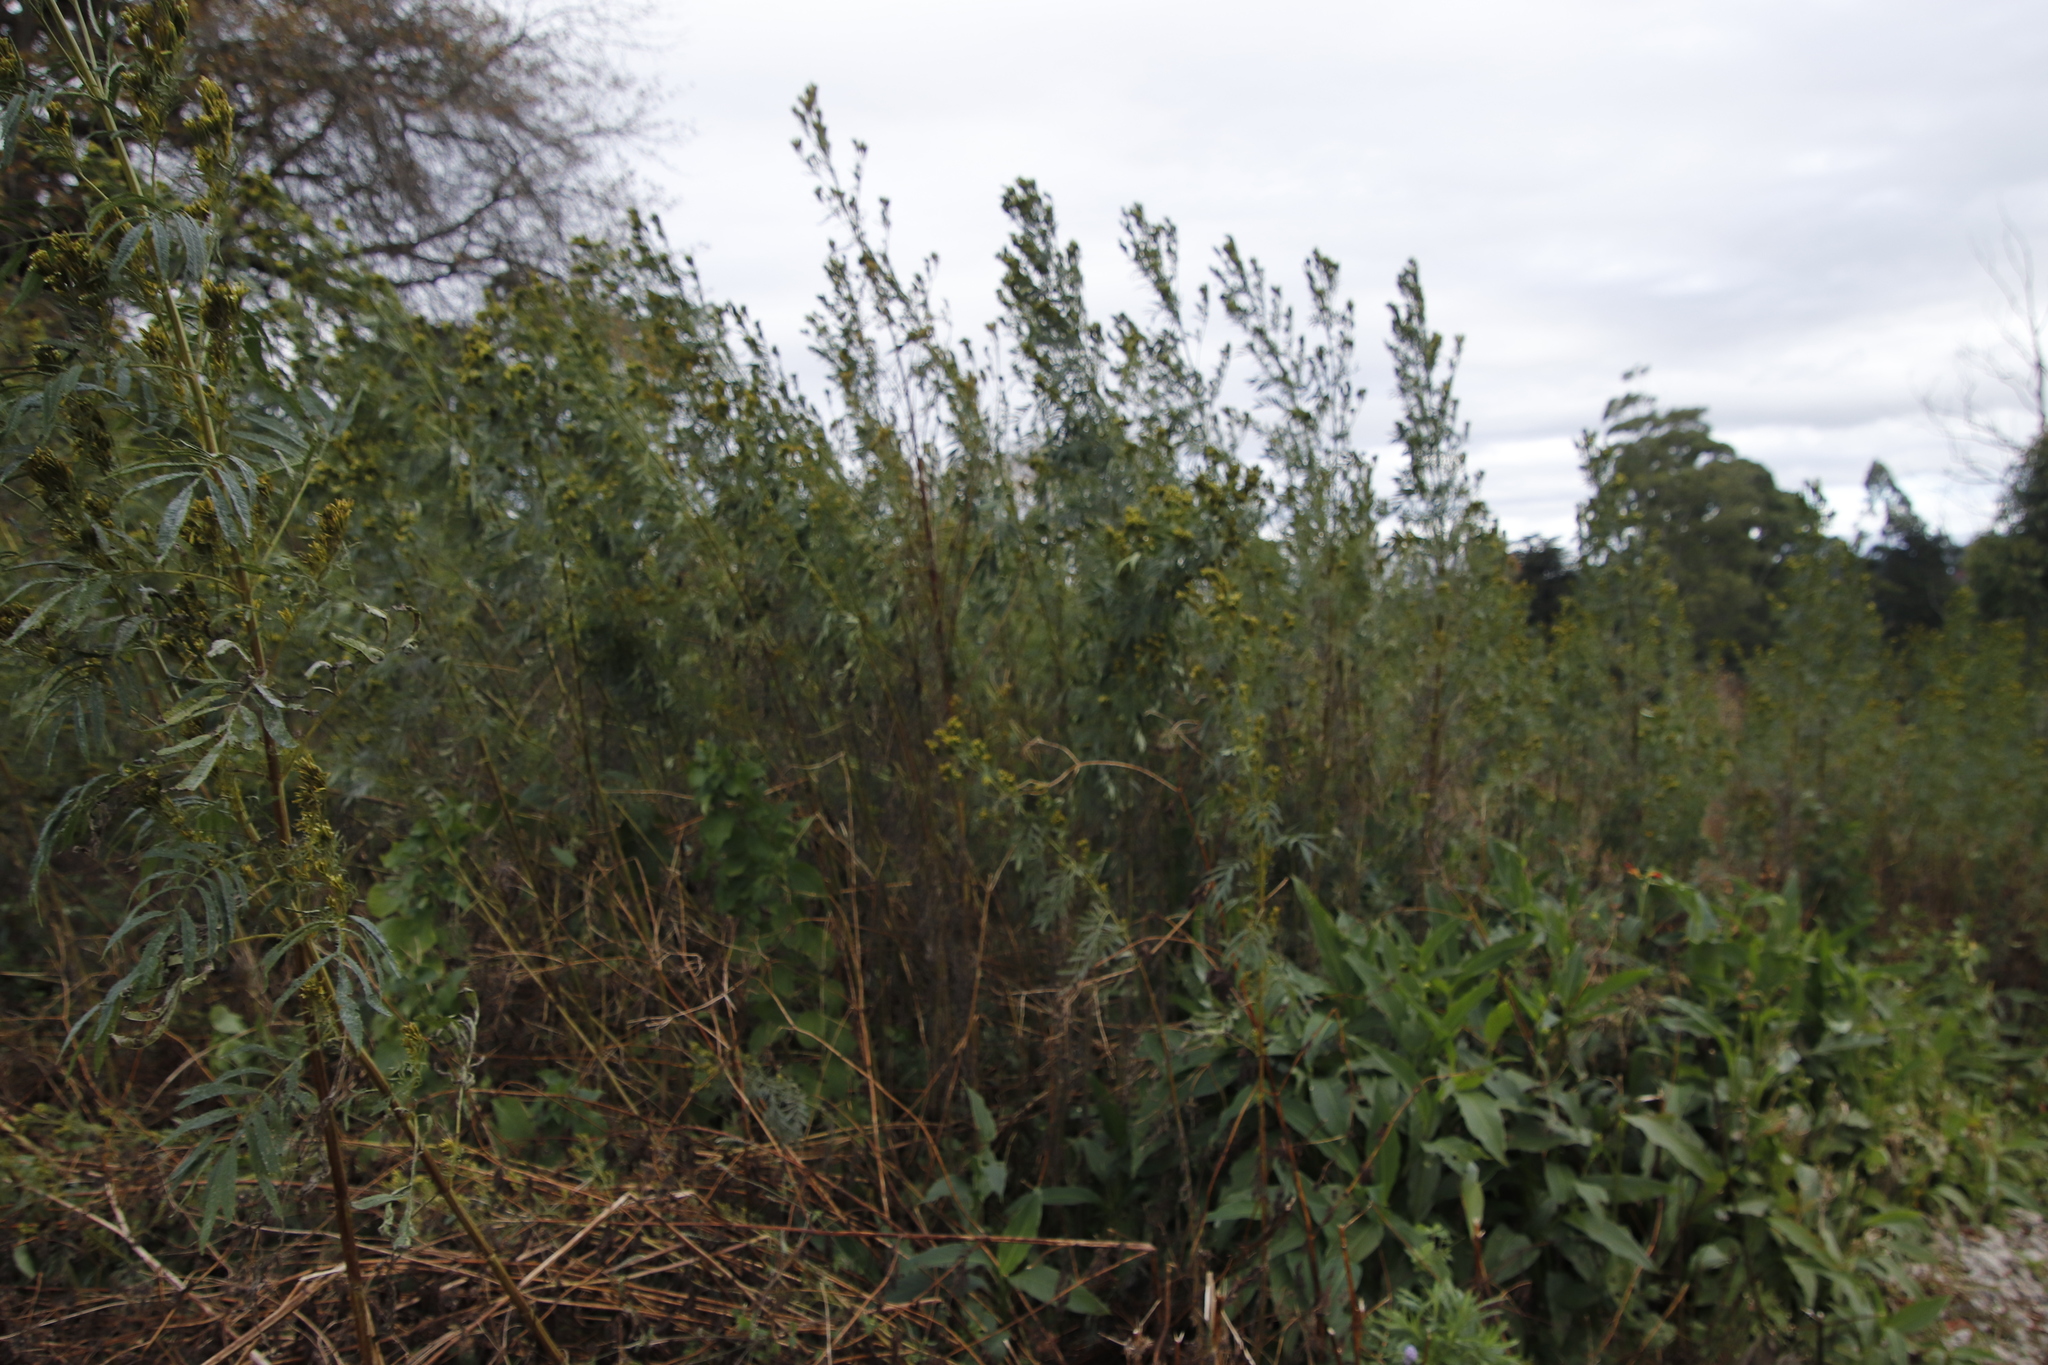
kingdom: Plantae
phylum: Tracheophyta
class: Magnoliopsida
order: Asterales
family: Asteraceae
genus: Tagetes
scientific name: Tagetes minuta
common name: Muster john henry
